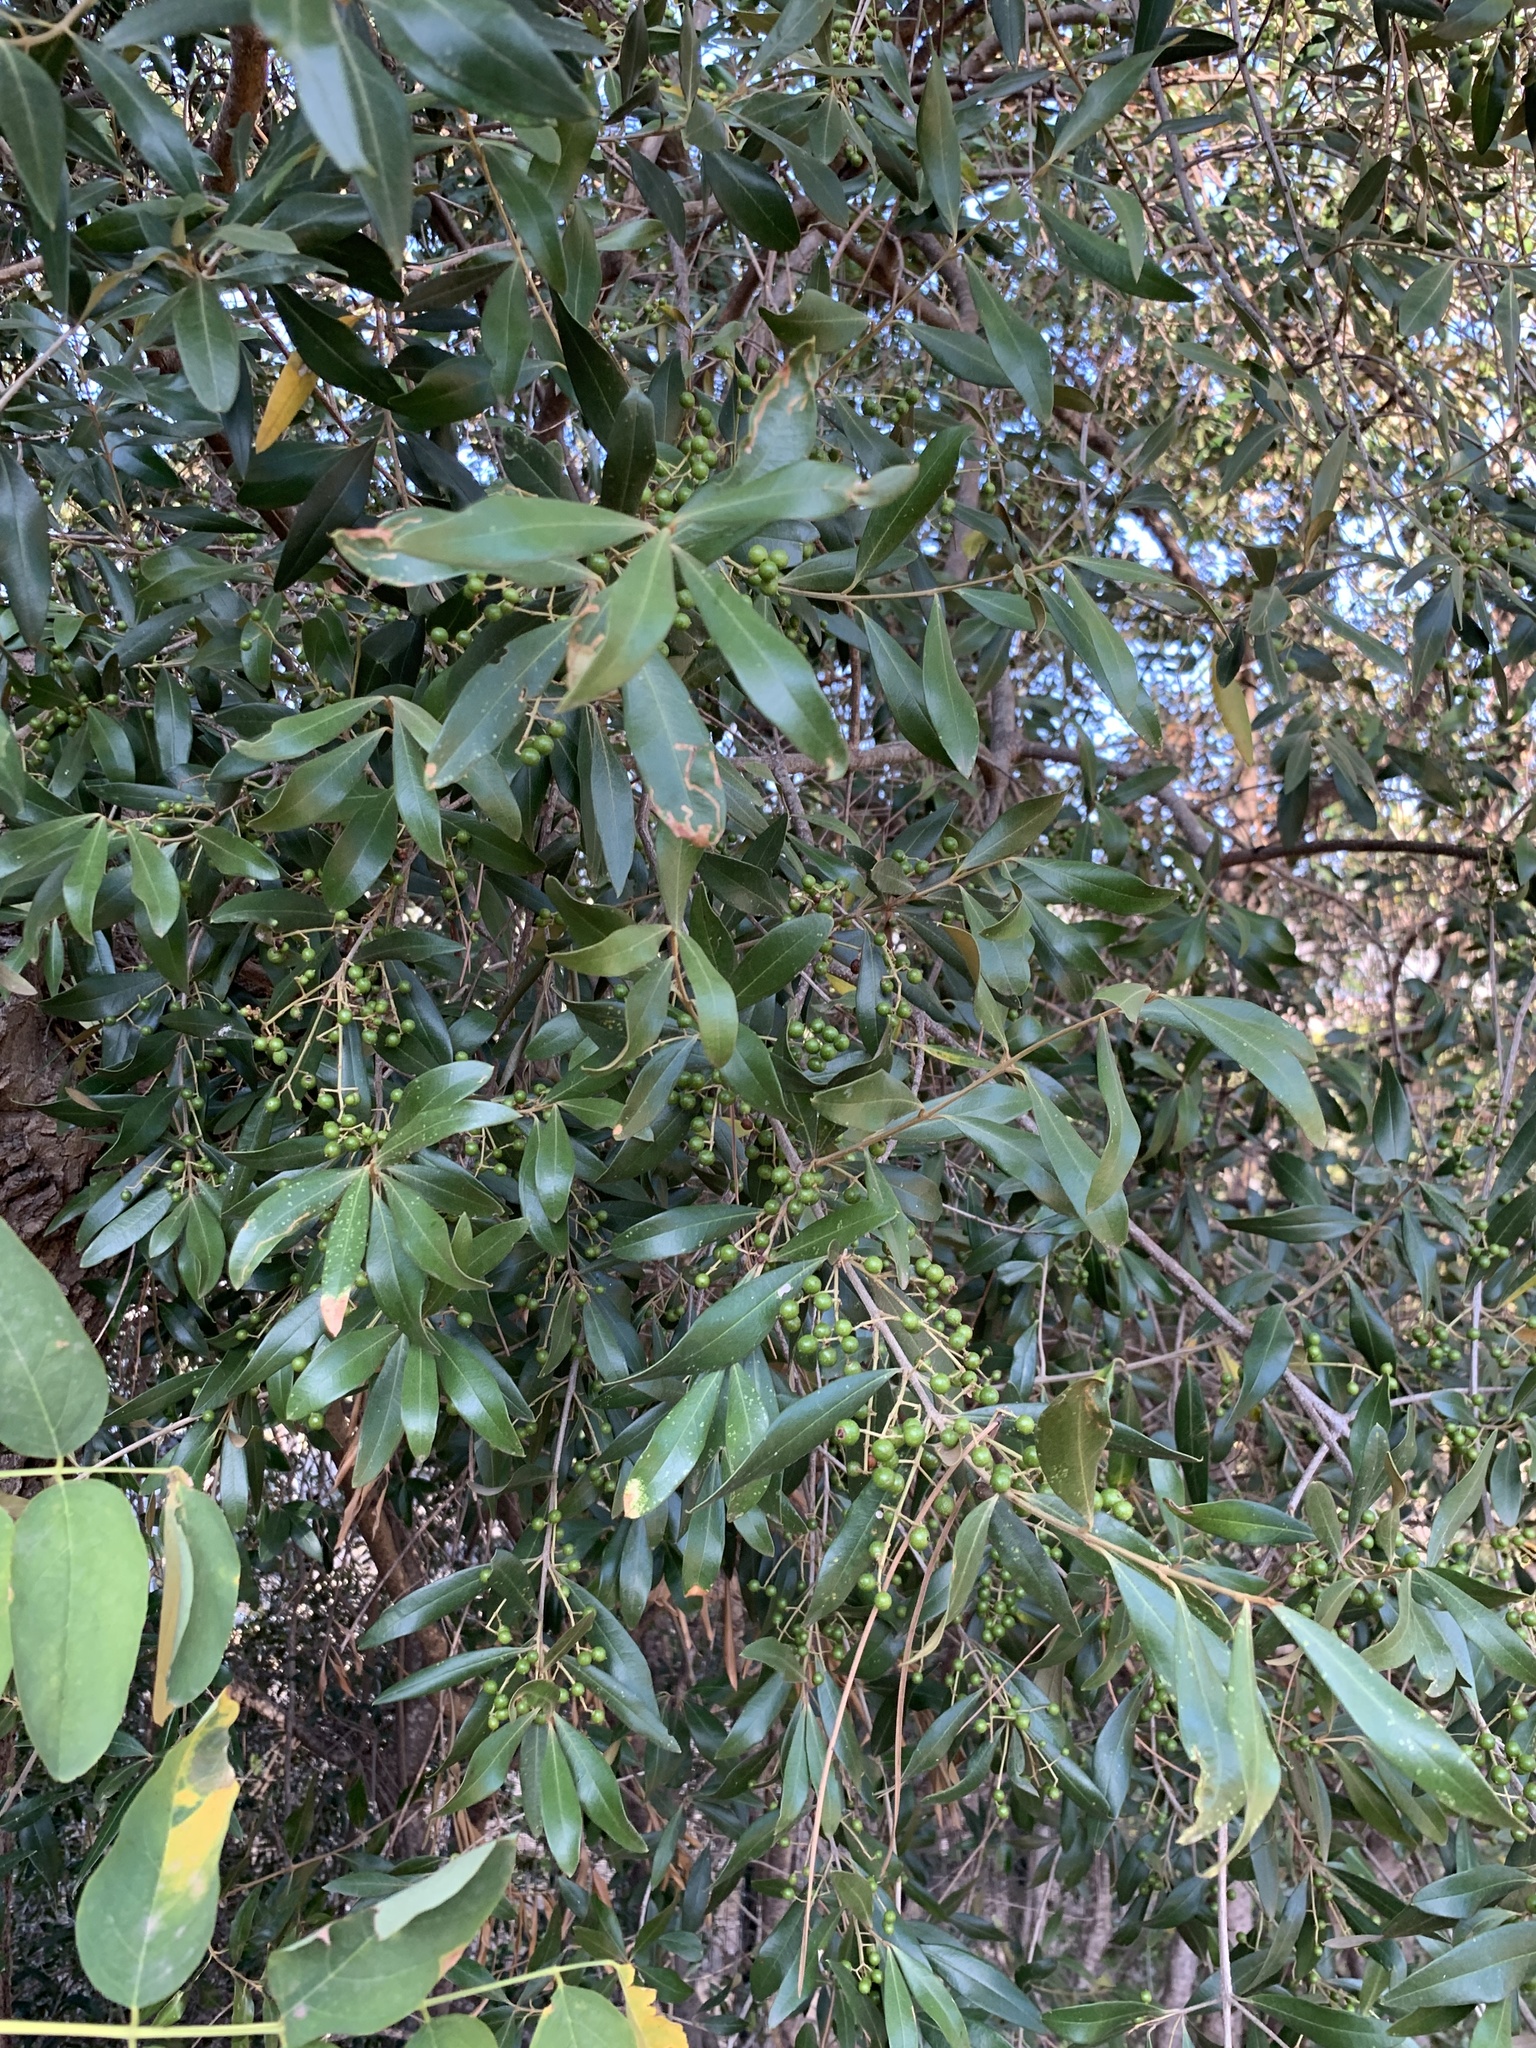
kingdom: Plantae
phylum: Tracheophyta
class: Magnoliopsida
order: Lamiales
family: Oleaceae
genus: Olea
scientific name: Olea europaea
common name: Olive
